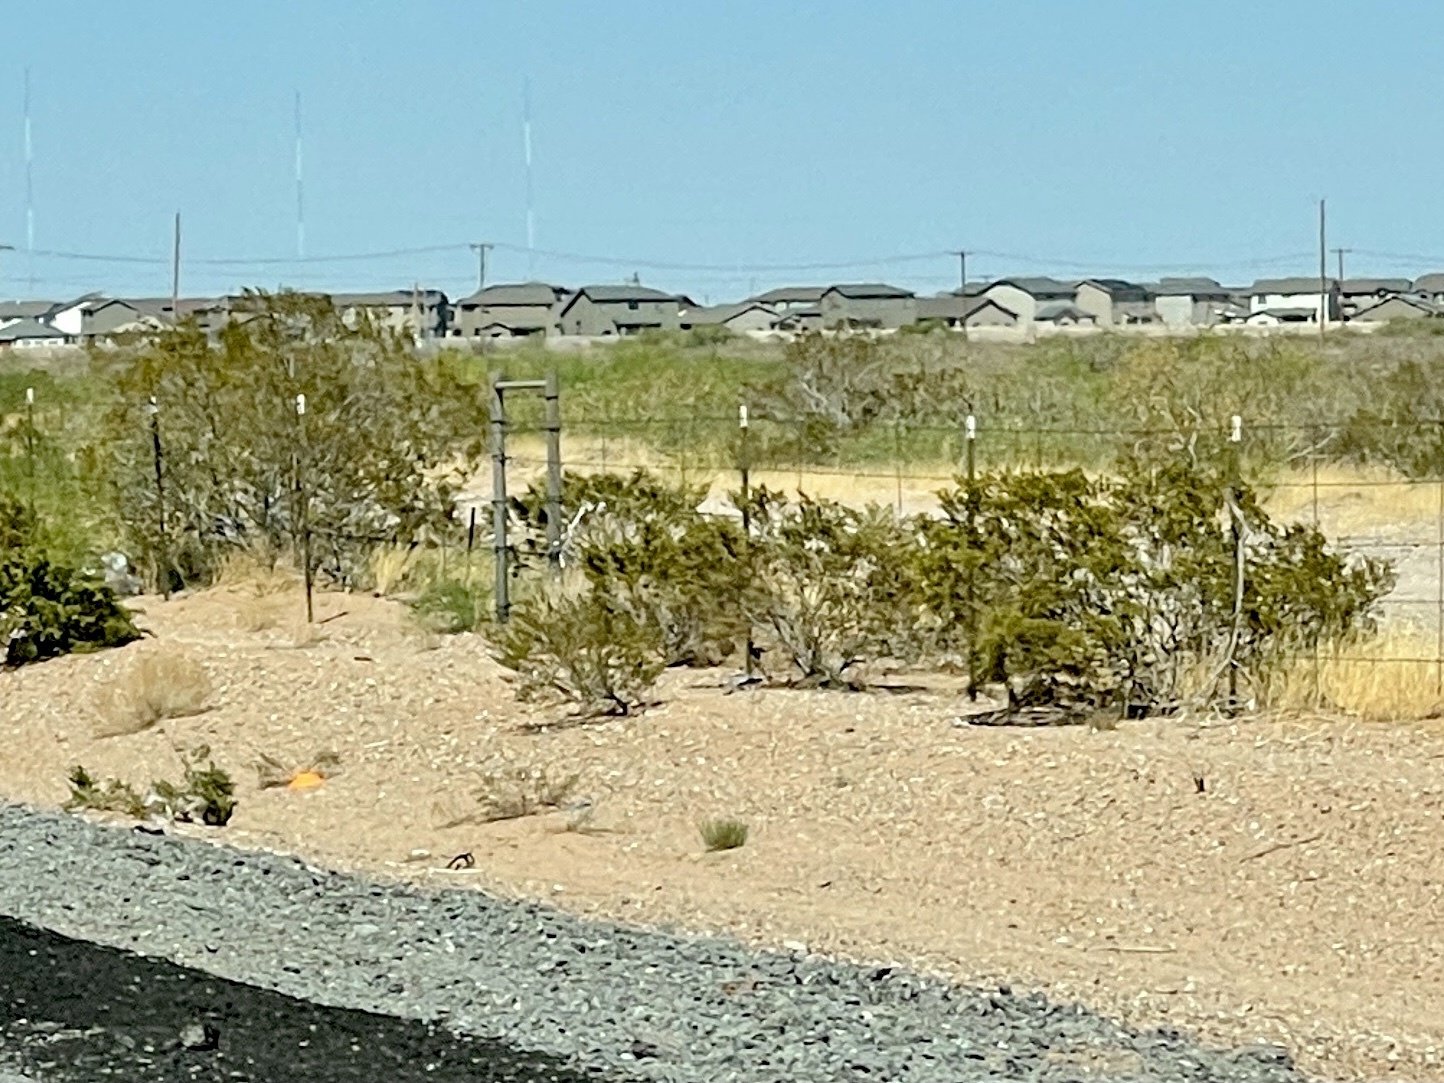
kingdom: Plantae
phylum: Tracheophyta
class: Magnoliopsida
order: Zygophyllales
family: Zygophyllaceae
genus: Larrea
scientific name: Larrea tridentata
